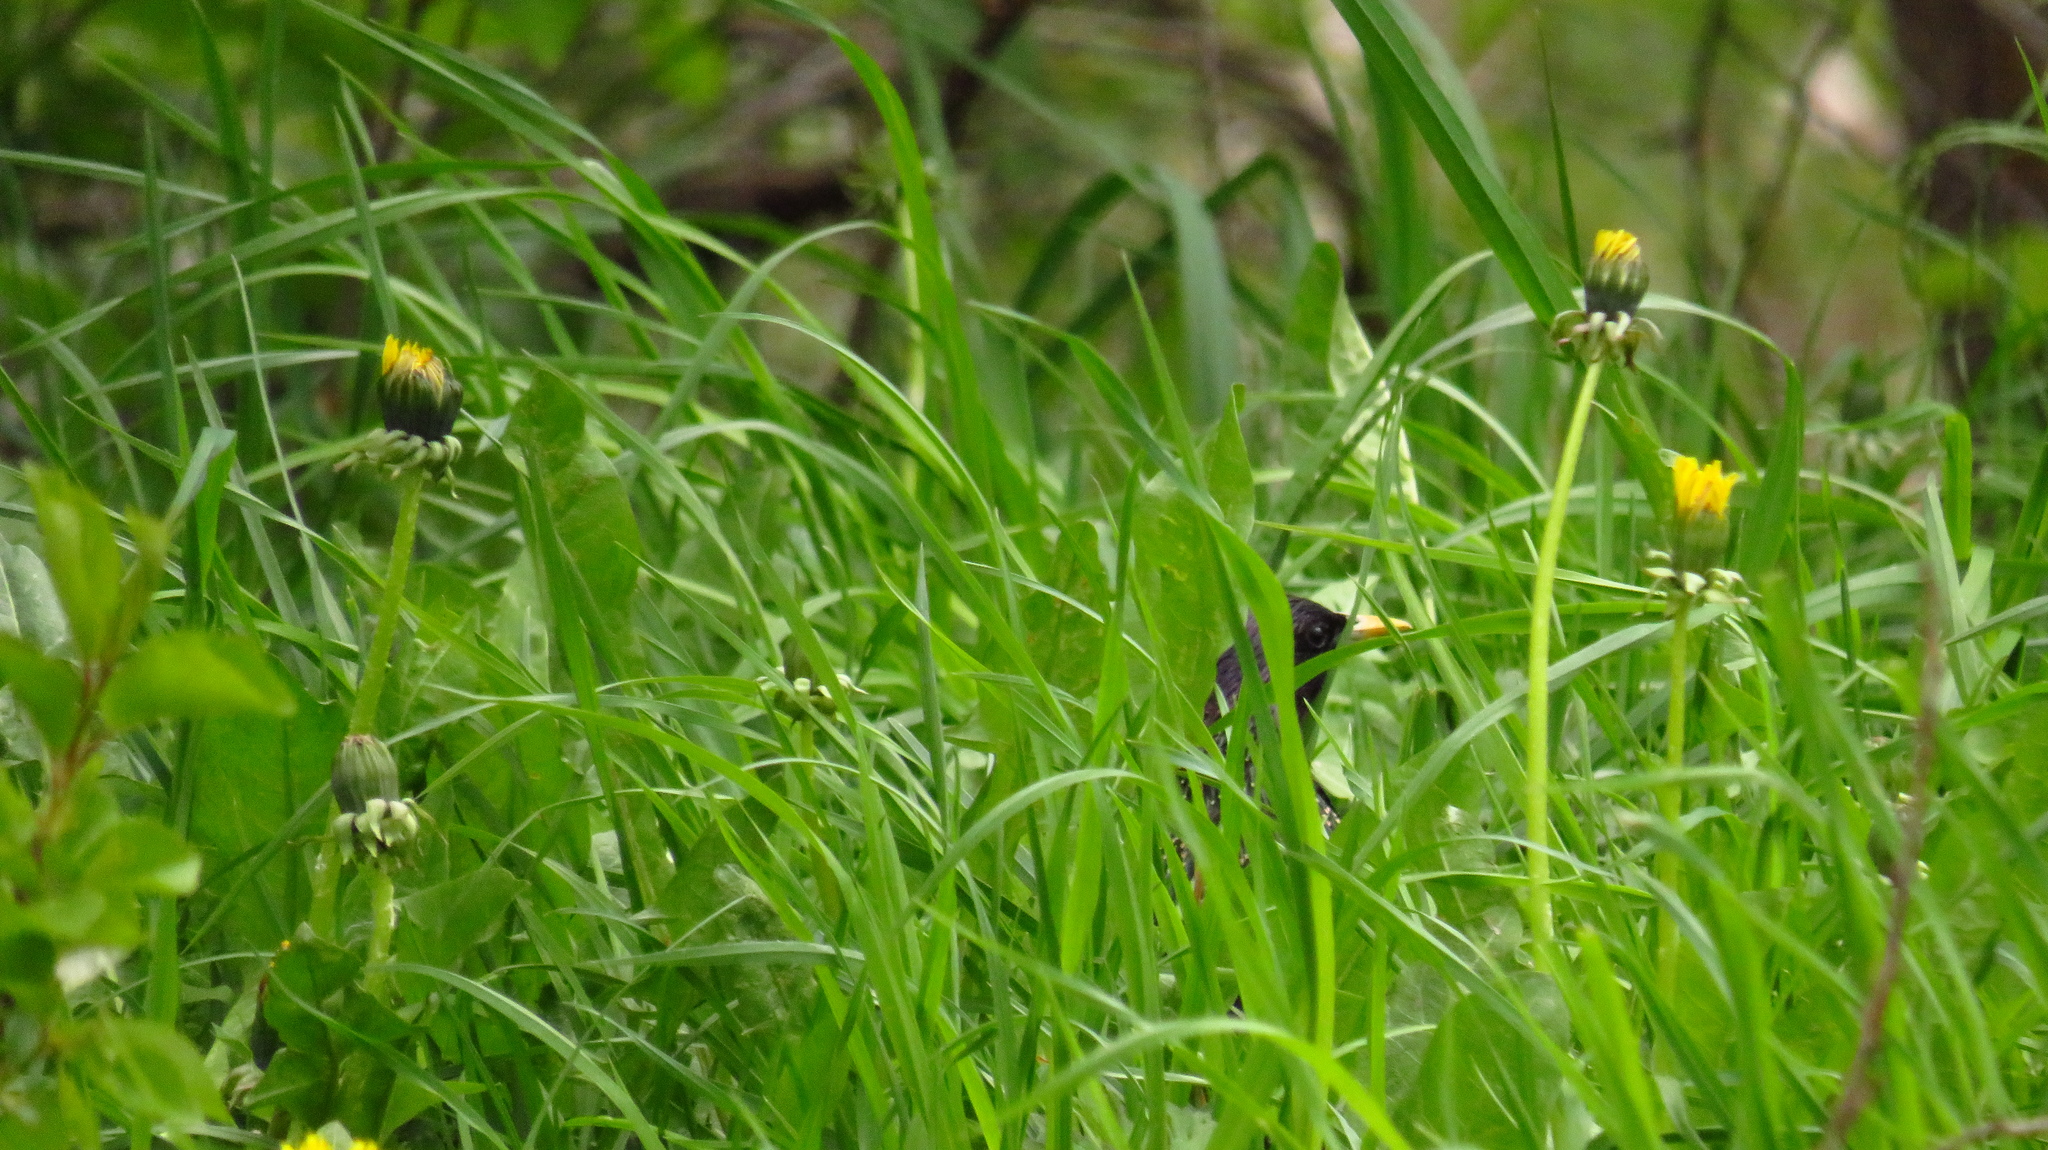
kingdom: Animalia
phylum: Chordata
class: Aves
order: Passeriformes
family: Sturnidae
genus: Sturnus
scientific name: Sturnus vulgaris
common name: Common starling
